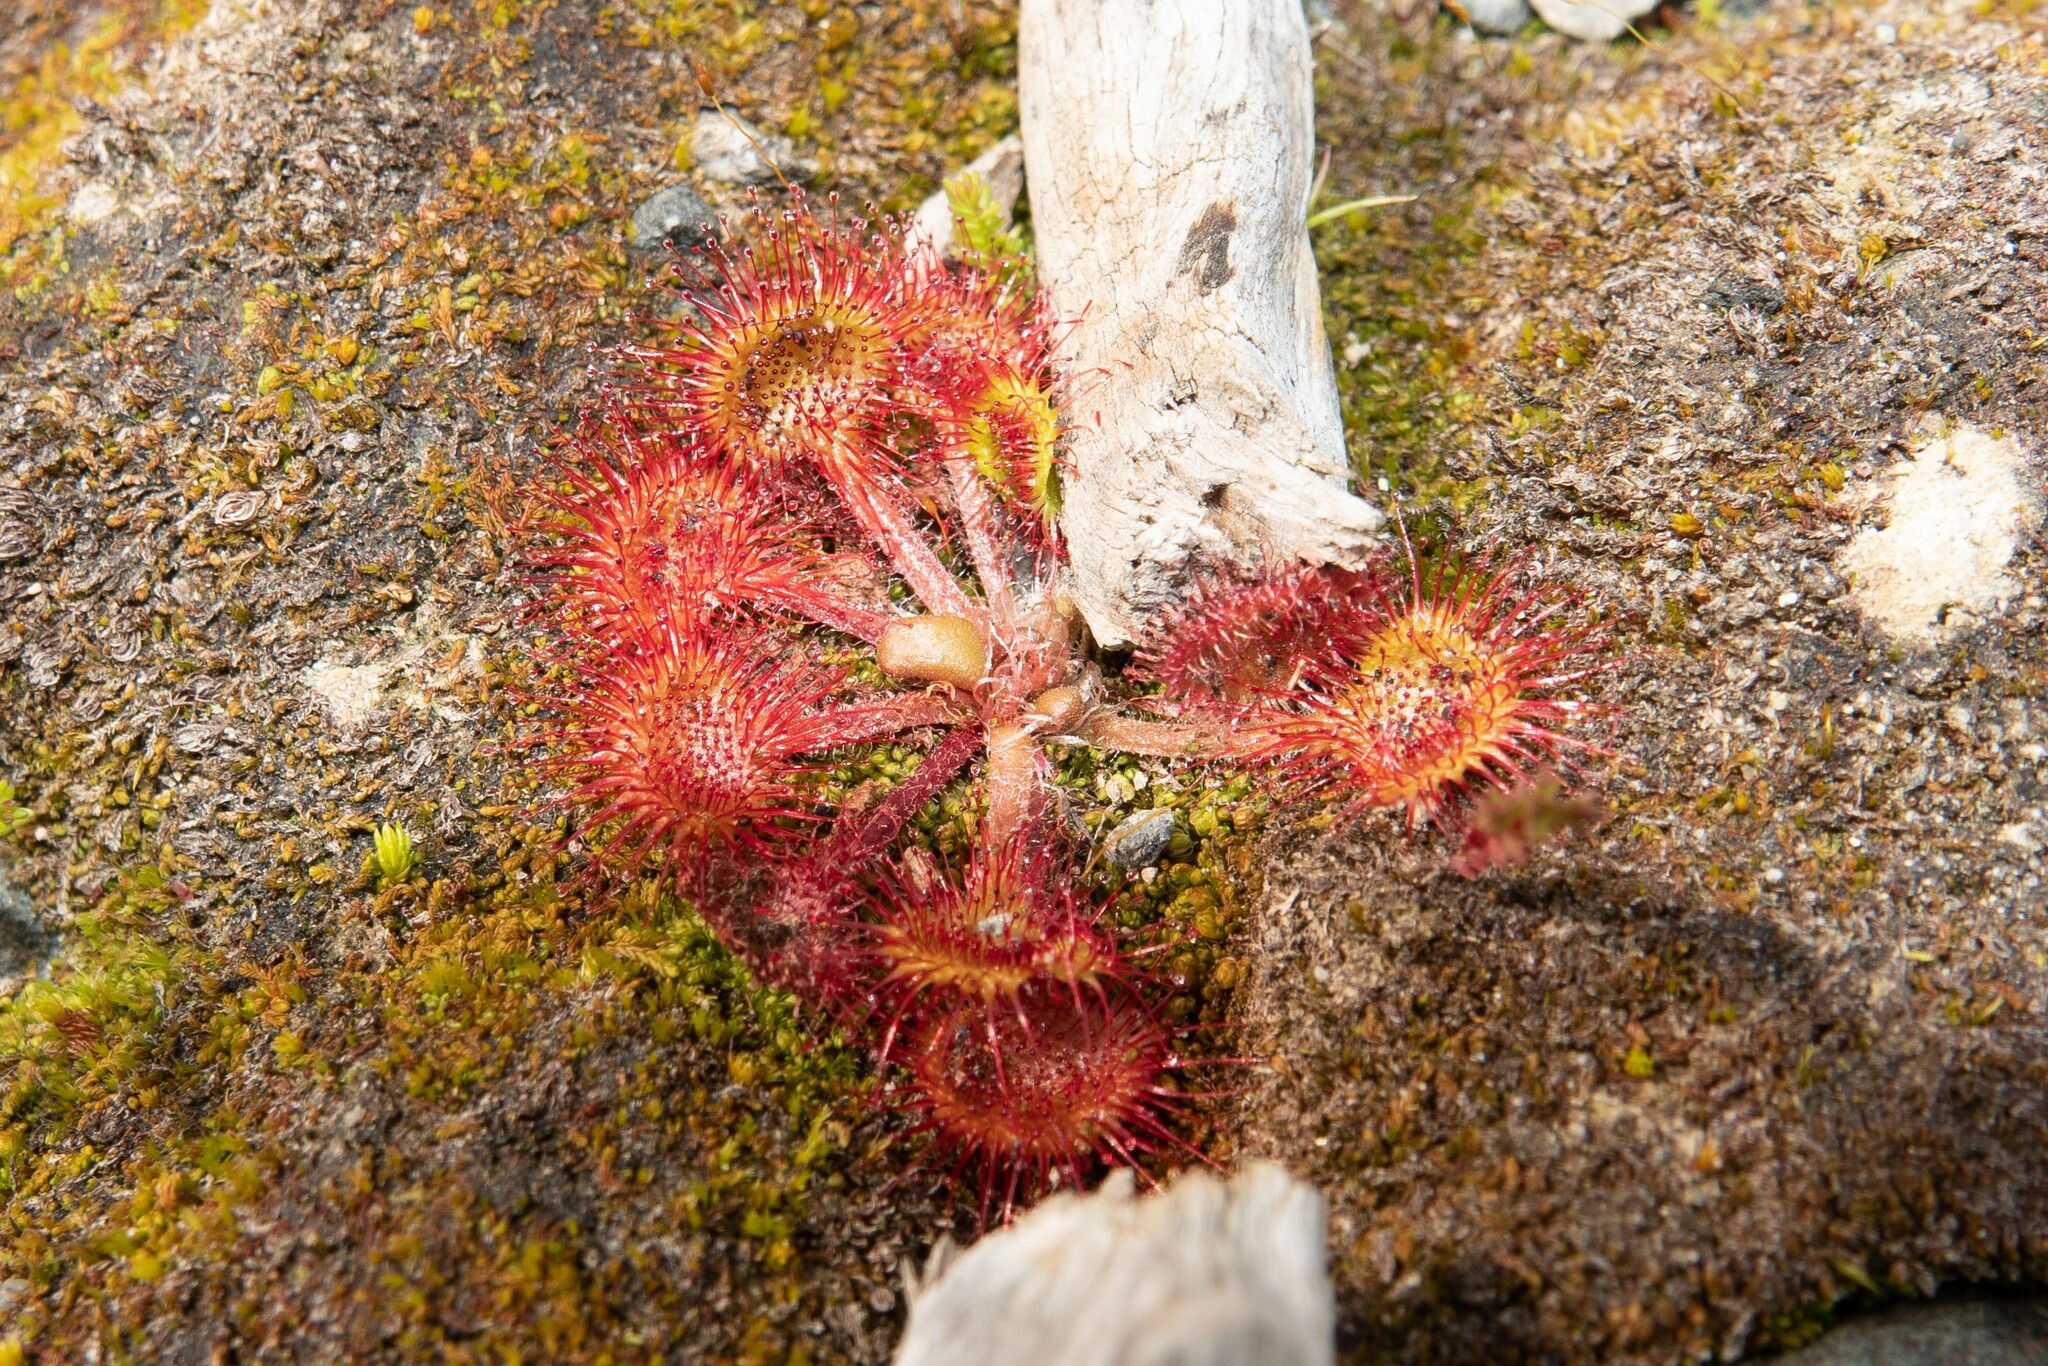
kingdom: Plantae
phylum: Tracheophyta
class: Magnoliopsida
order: Caryophyllales
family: Droseraceae
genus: Drosera
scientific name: Drosera rotundifolia
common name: Round-leaved sundew
